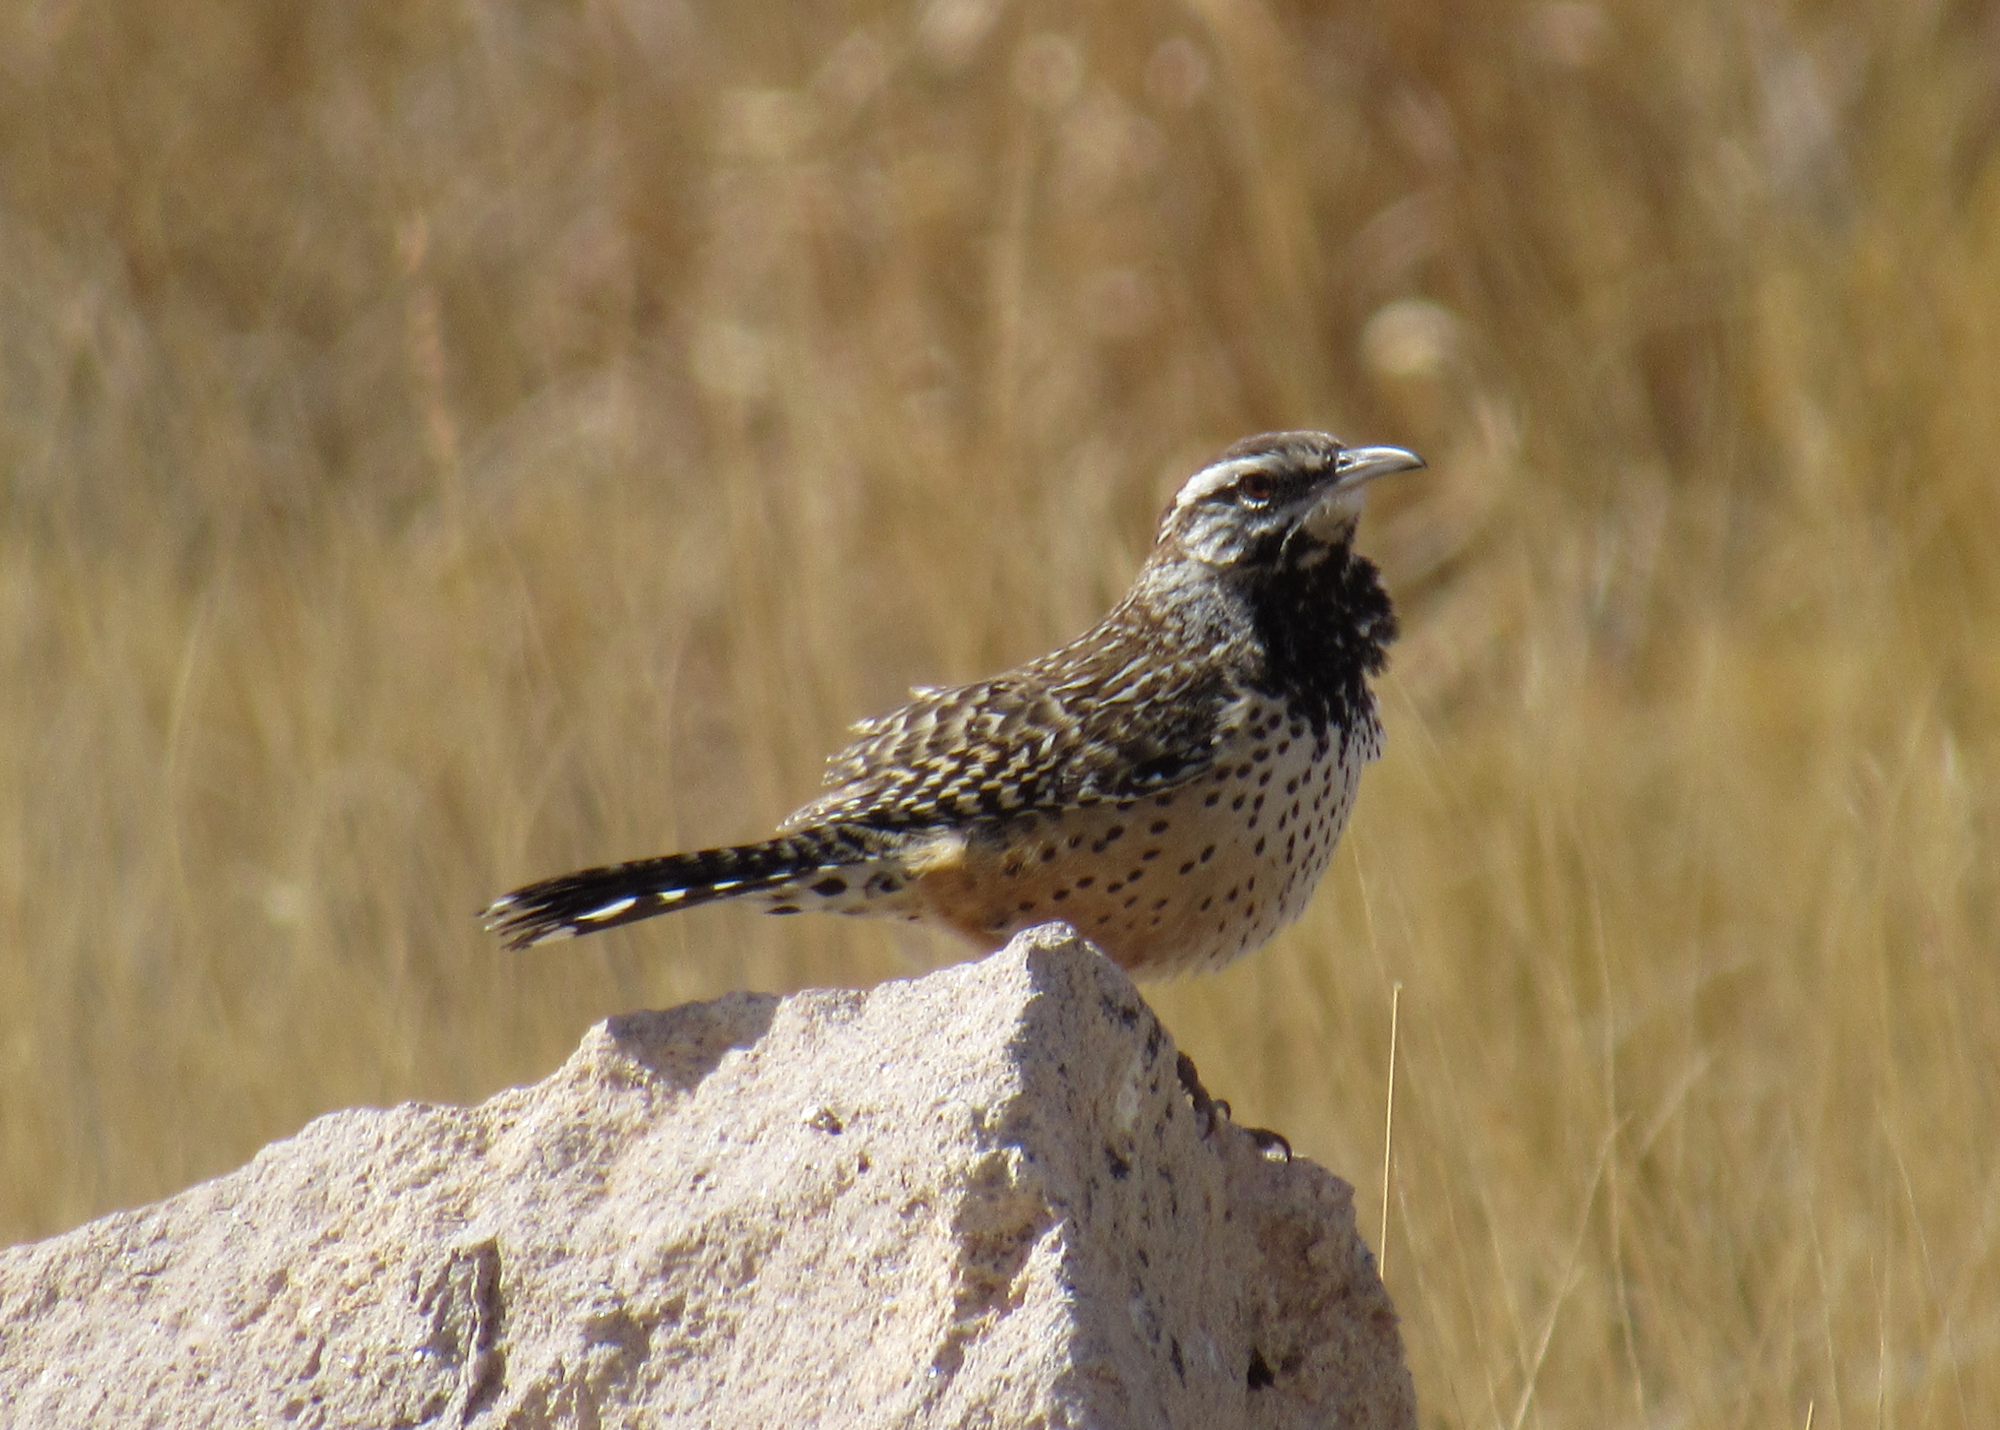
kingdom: Animalia
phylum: Chordata
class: Aves
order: Passeriformes
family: Troglodytidae
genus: Campylorhynchus
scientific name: Campylorhynchus brunneicapillus
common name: Cactus wren
